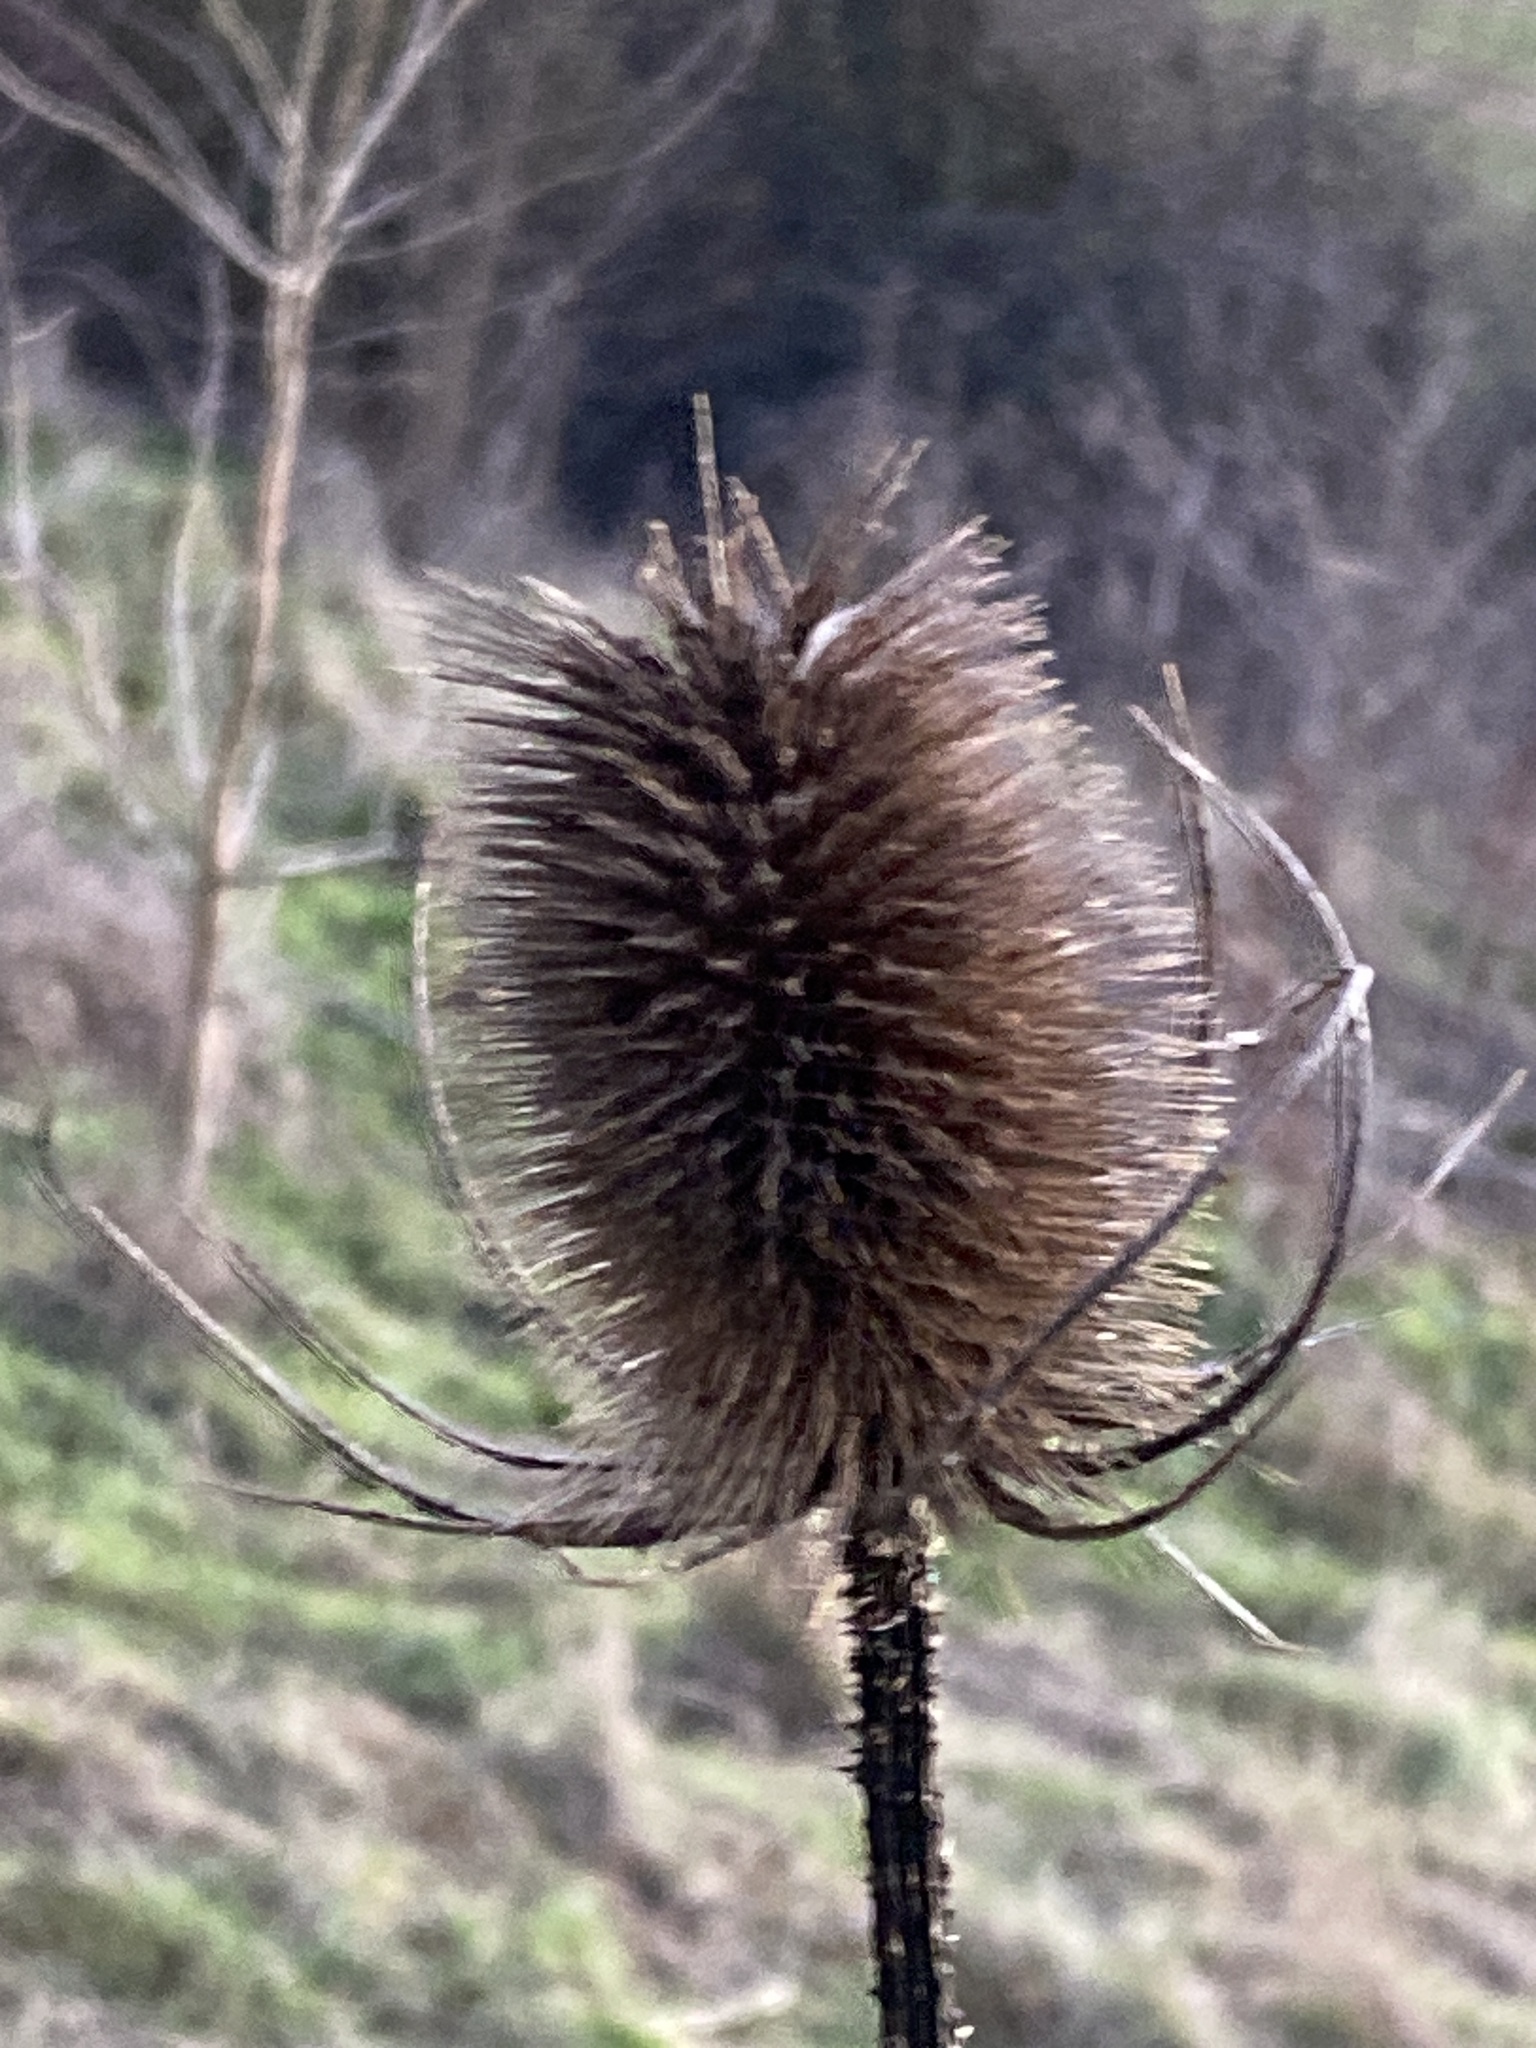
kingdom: Plantae
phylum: Tracheophyta
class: Magnoliopsida
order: Dipsacales
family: Caprifoliaceae
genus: Dipsacus
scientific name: Dipsacus fullonum
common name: Teasel
